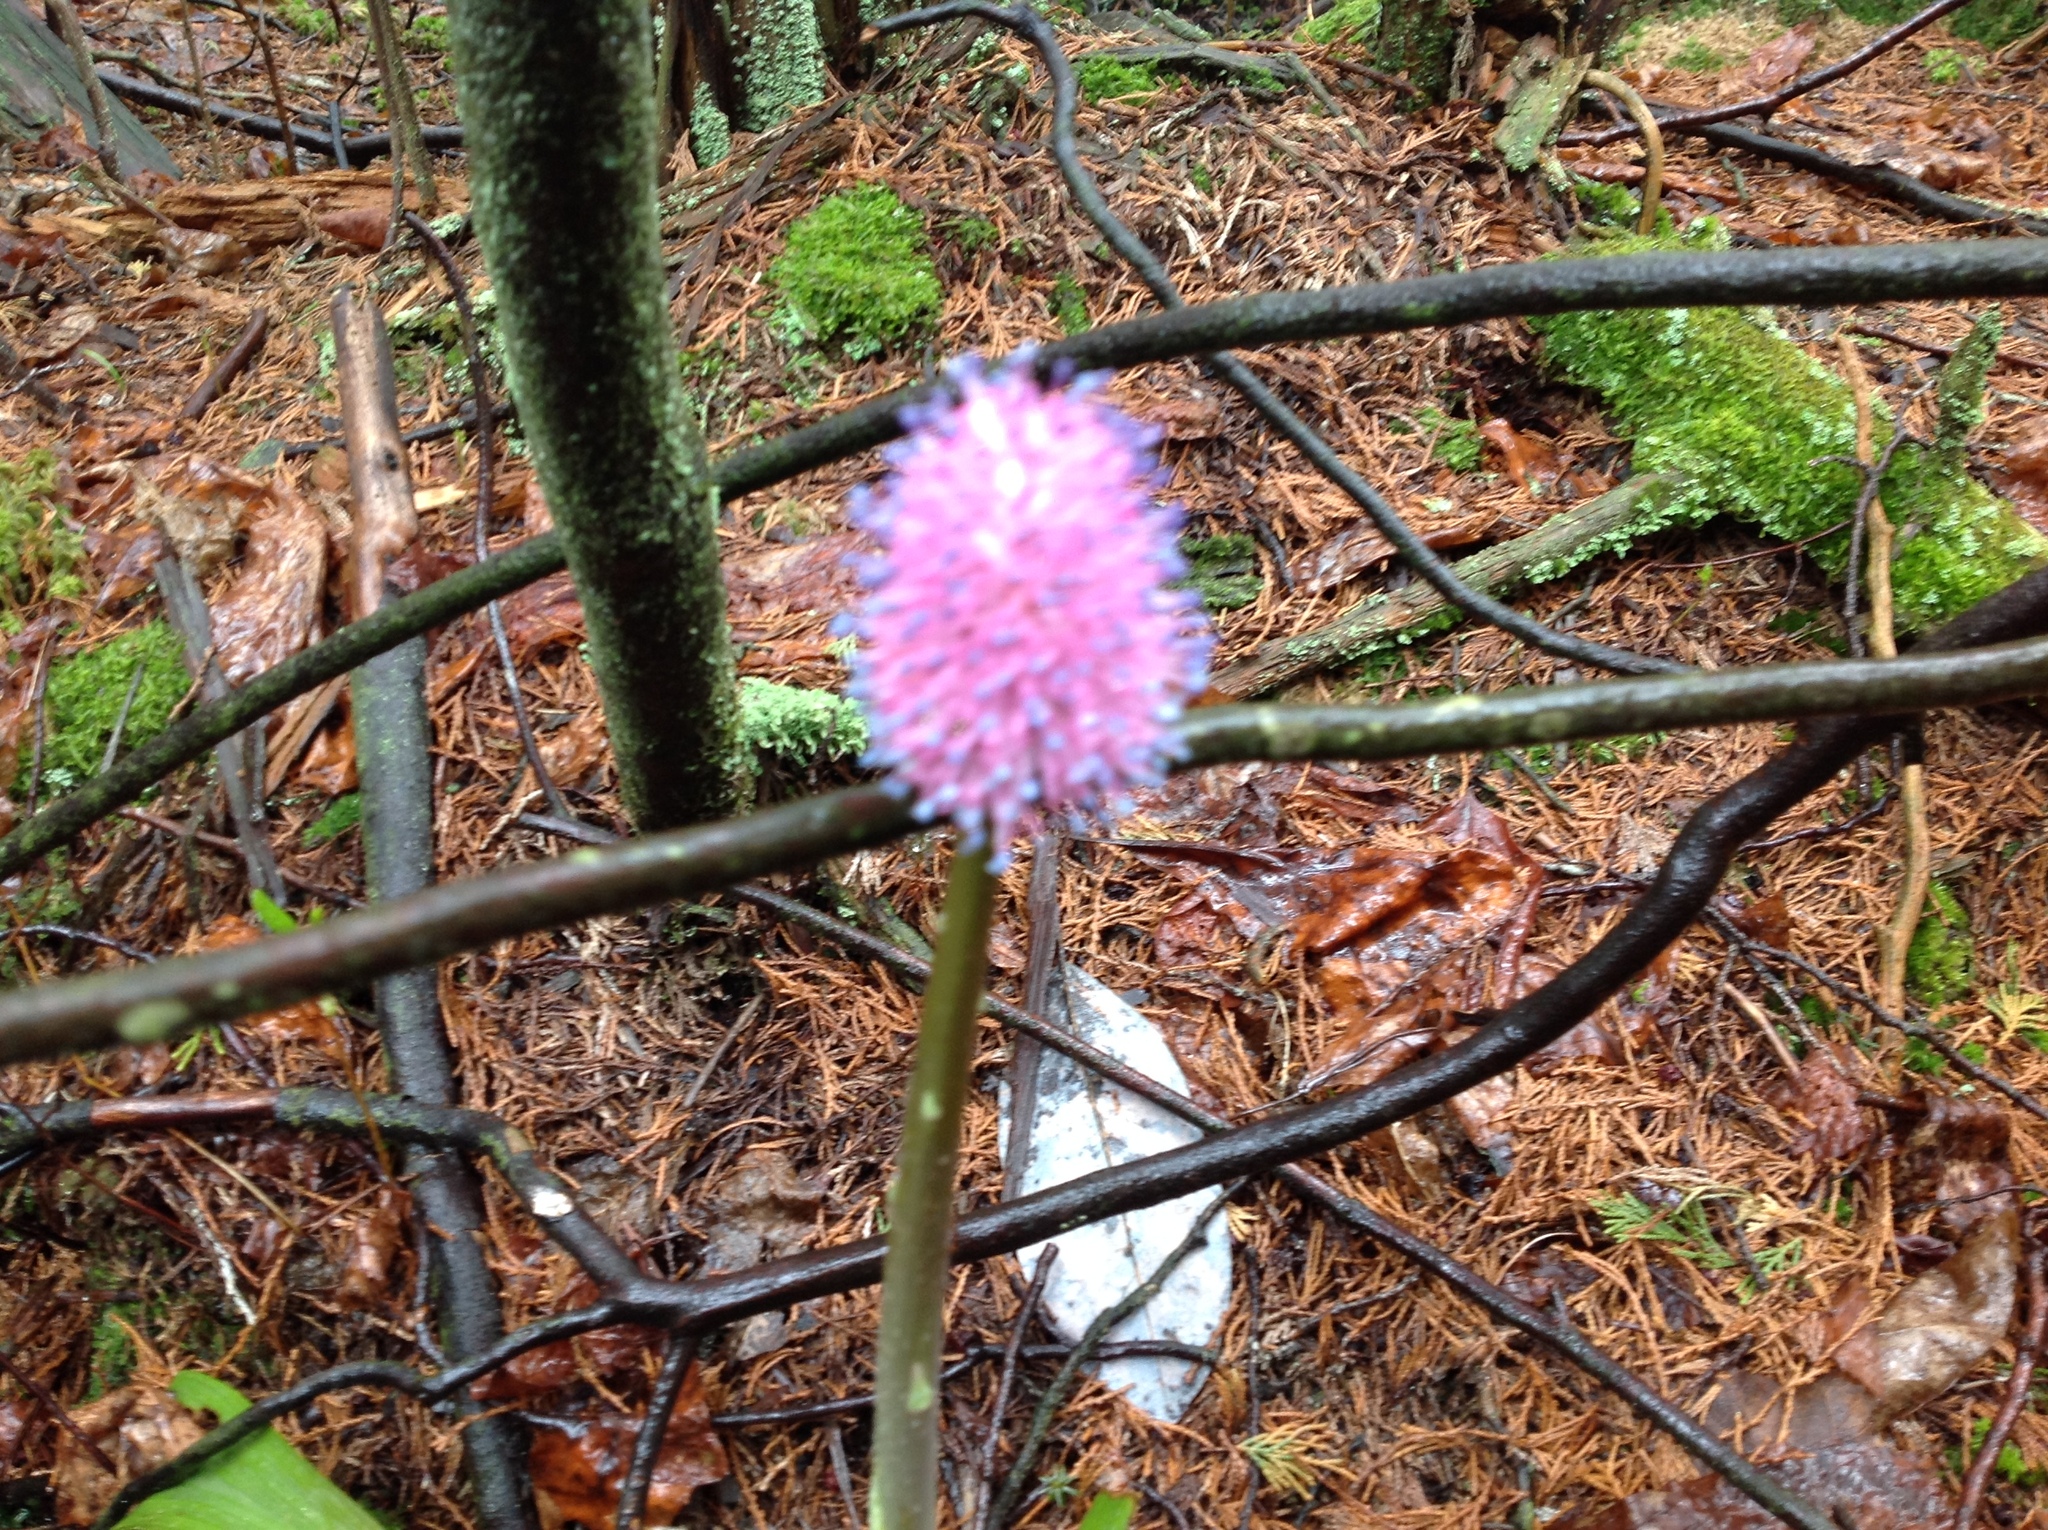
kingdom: Plantae
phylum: Tracheophyta
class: Liliopsida
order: Liliales
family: Melanthiaceae
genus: Helonias
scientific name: Helonias bullata
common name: Swamp-pink
